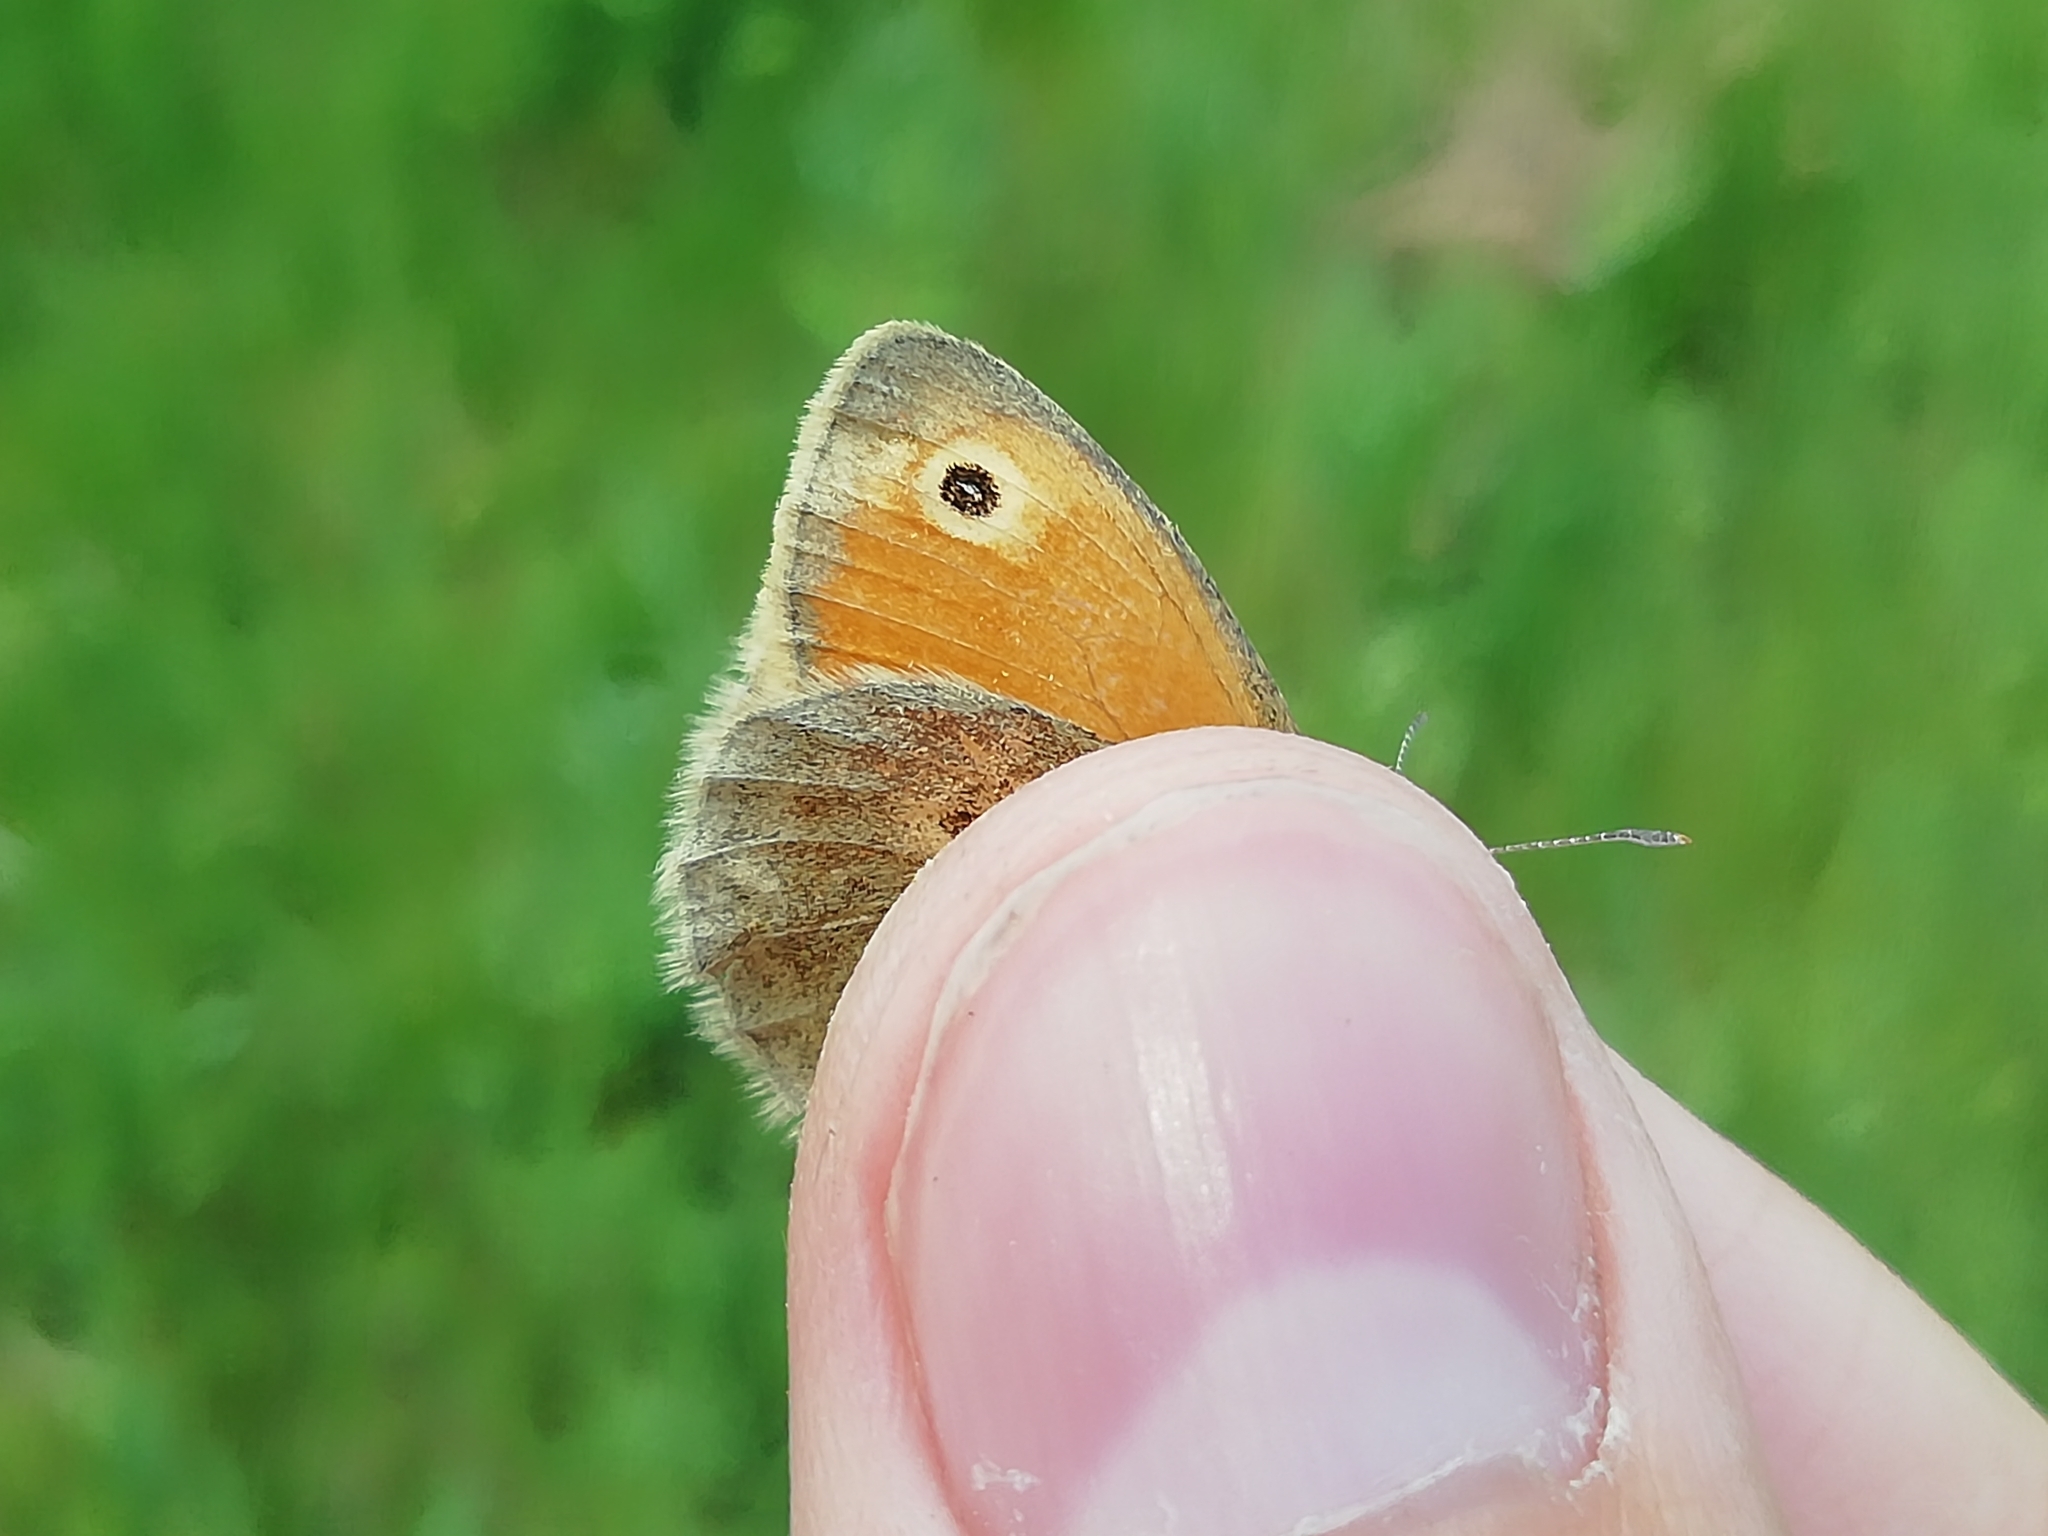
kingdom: Animalia
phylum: Arthropoda
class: Insecta
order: Lepidoptera
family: Nymphalidae
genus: Coenonympha
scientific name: Coenonympha pamphilus
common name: Small heath
